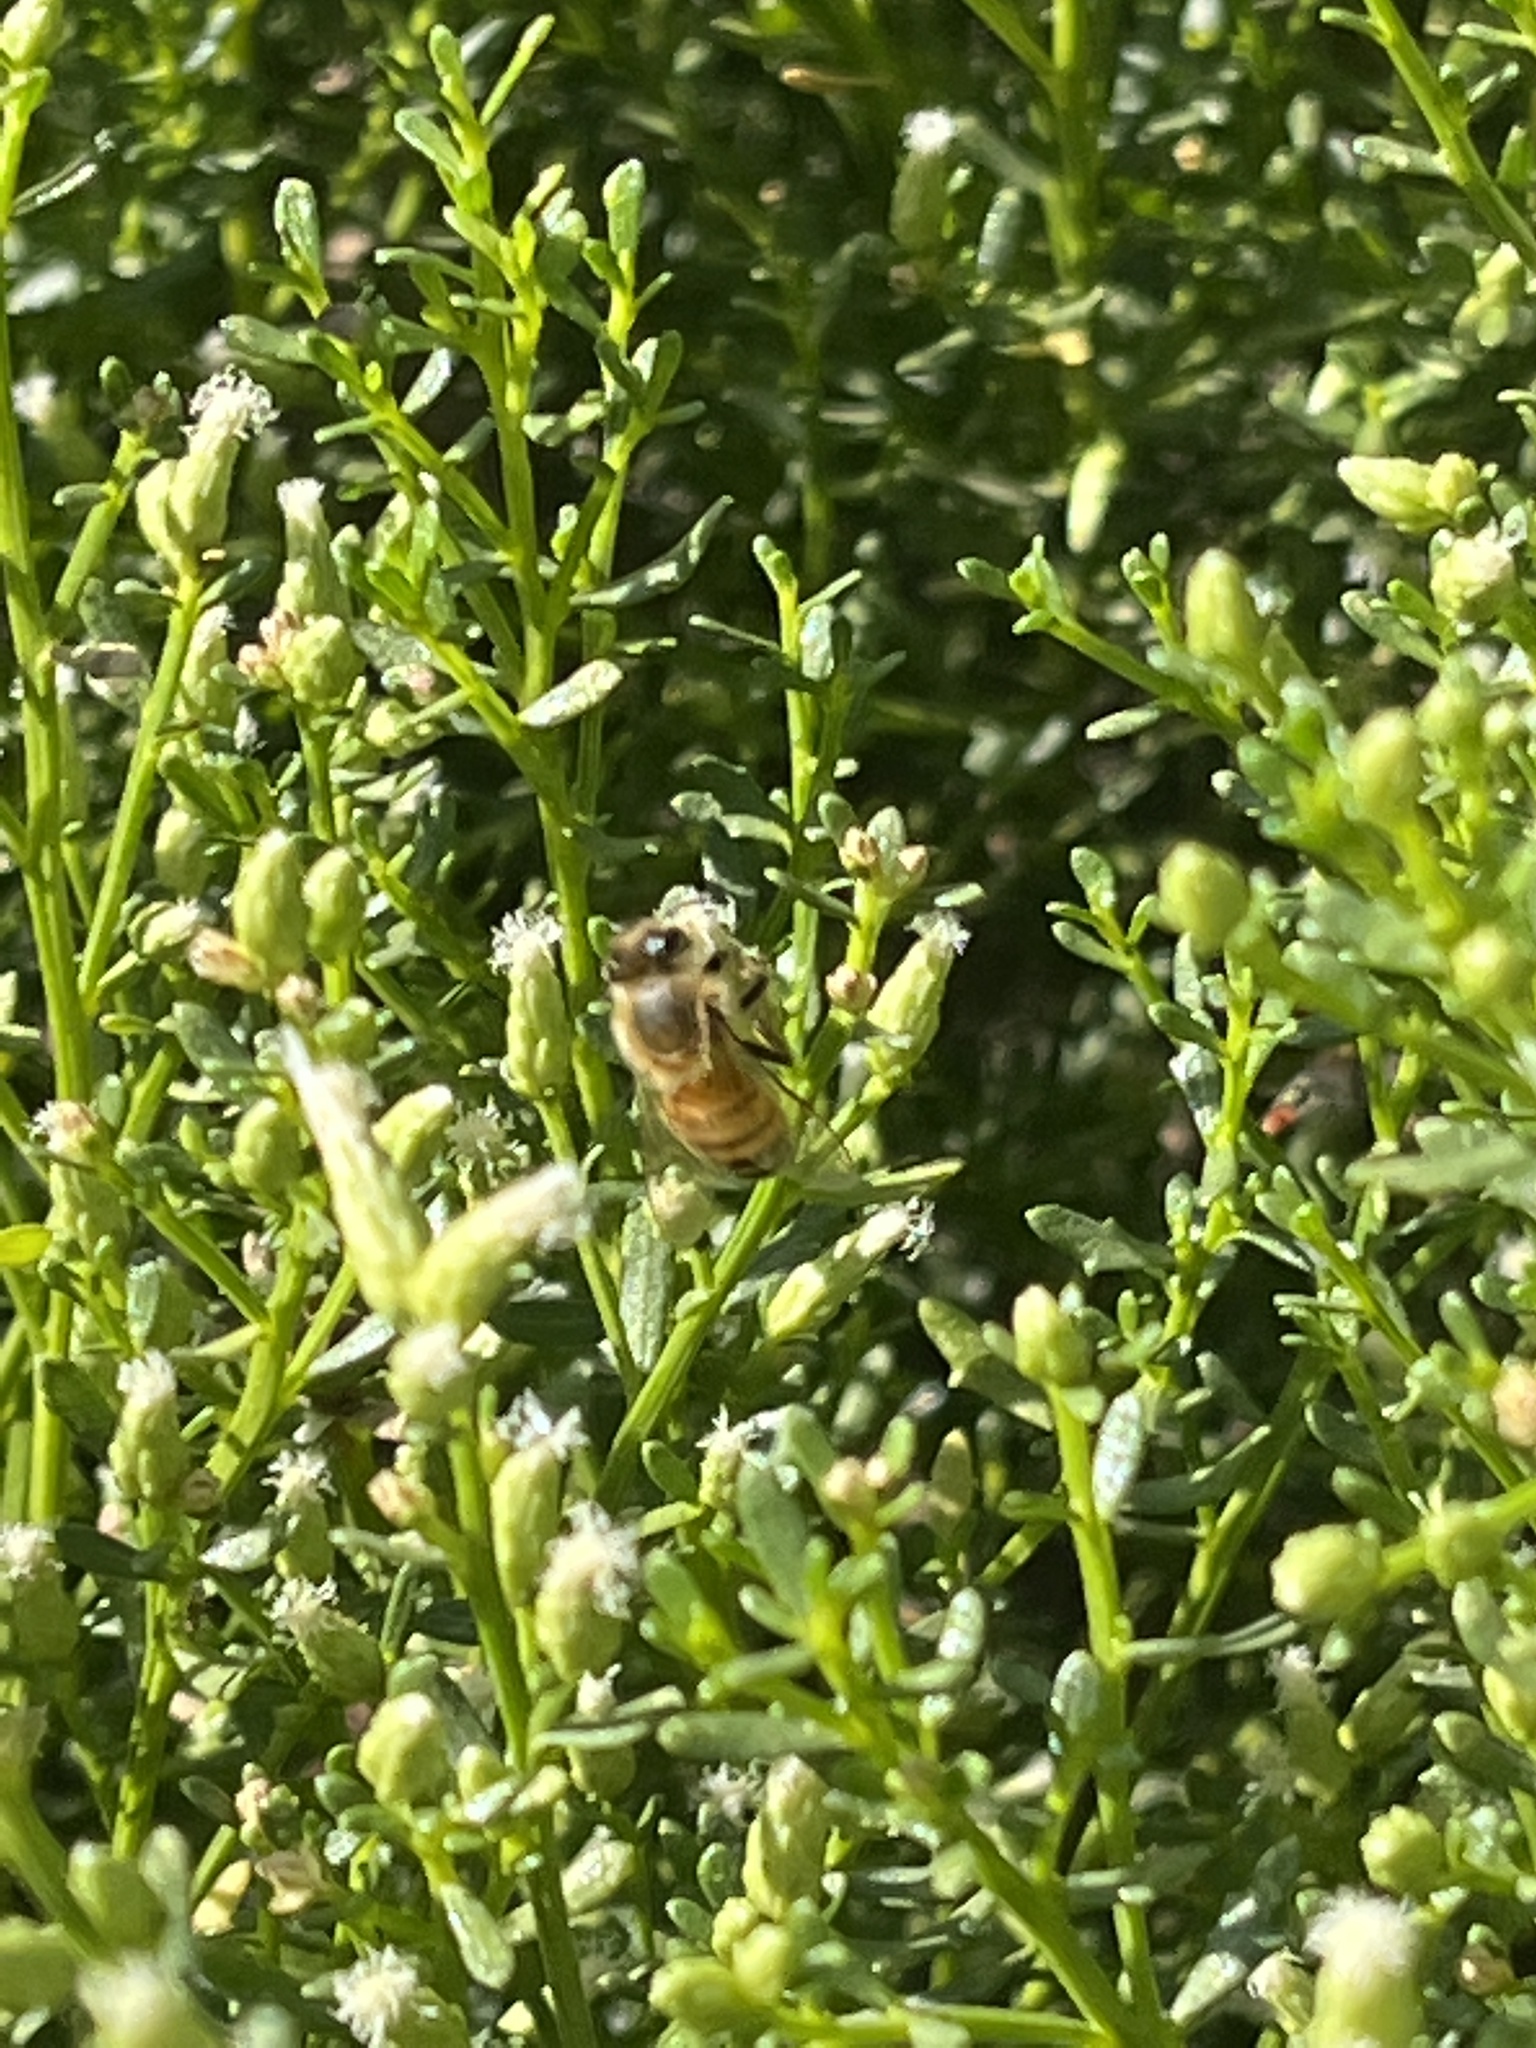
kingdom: Animalia
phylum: Arthropoda
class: Insecta
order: Hymenoptera
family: Apidae
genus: Apis
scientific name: Apis mellifera
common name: Honey bee
